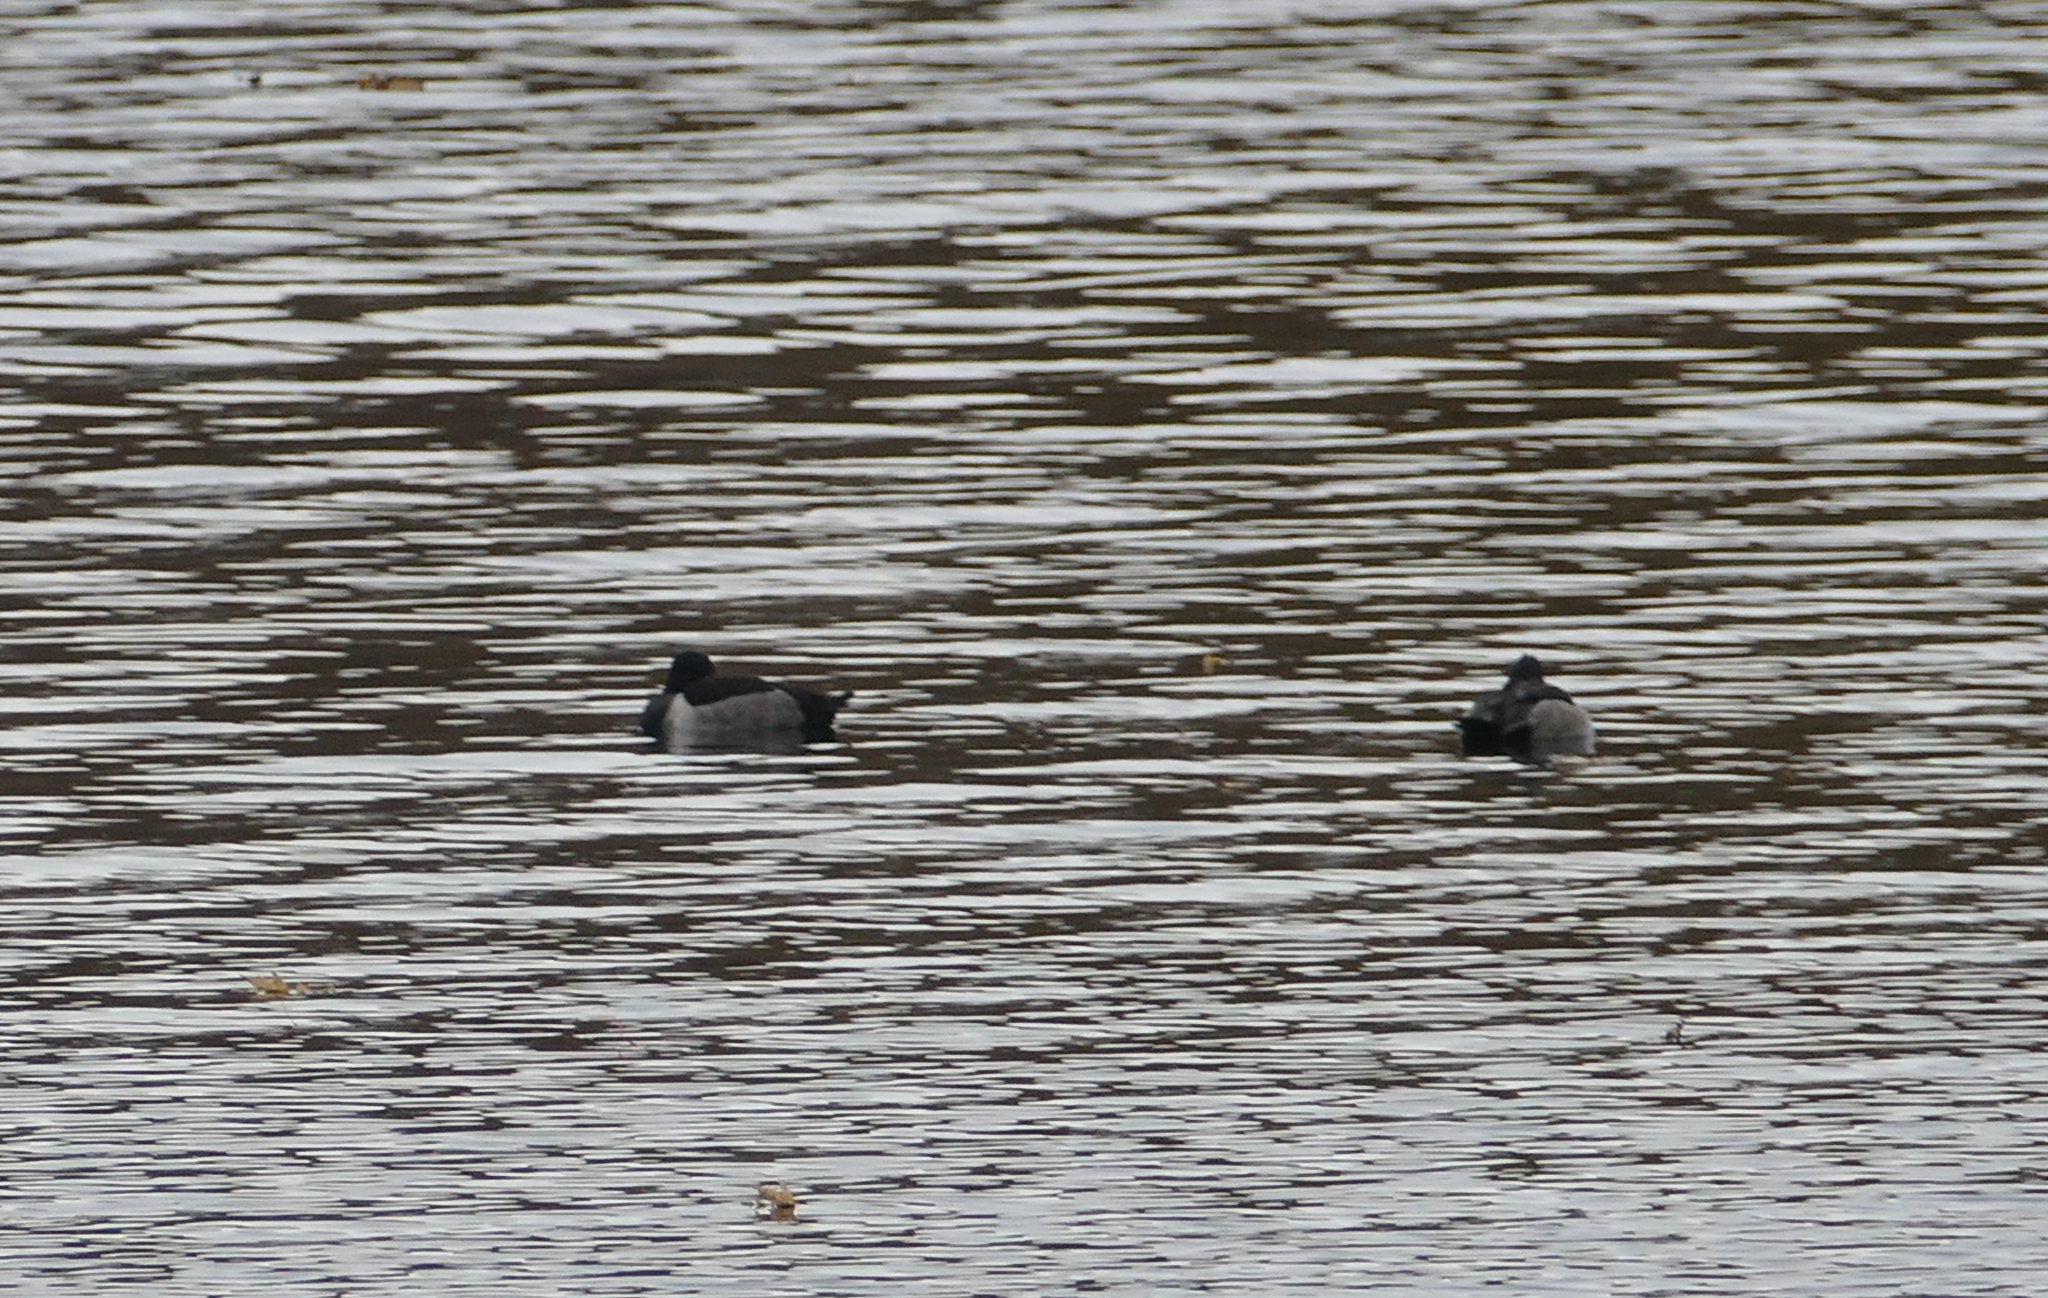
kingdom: Animalia
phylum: Chordata
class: Aves
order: Anseriformes
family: Anatidae
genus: Aythya
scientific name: Aythya collaris
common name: Ring-necked duck
